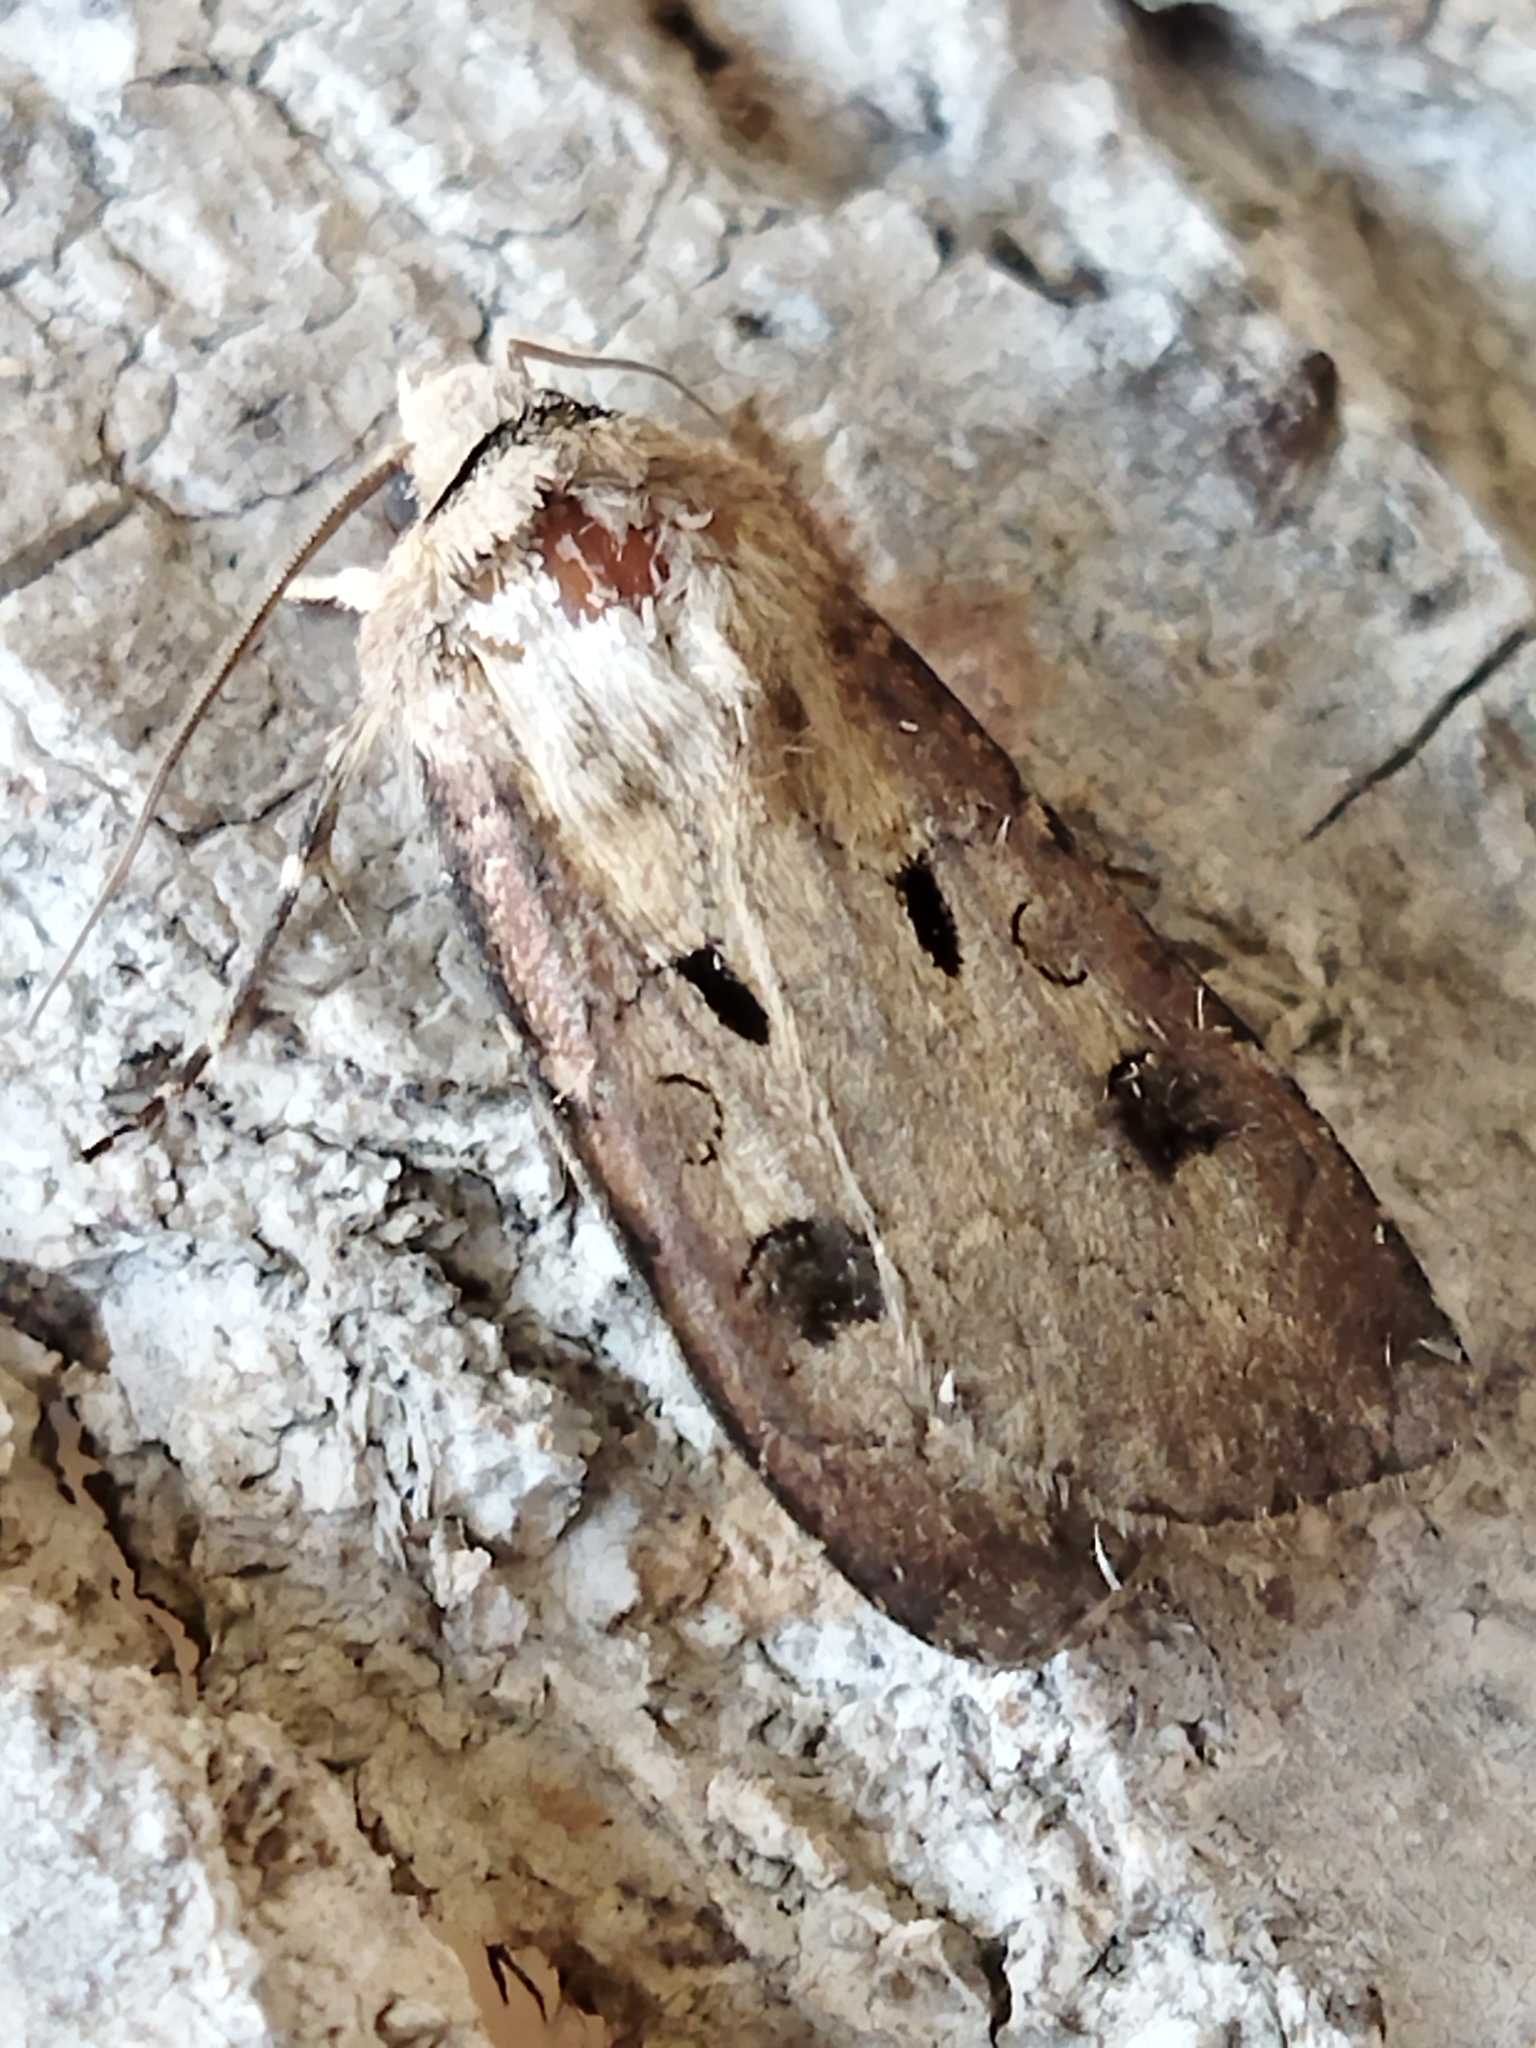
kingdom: Animalia
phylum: Arthropoda
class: Insecta
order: Lepidoptera
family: Noctuidae
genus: Agrotis
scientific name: Agrotis exclamationis
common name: Heart and dart
